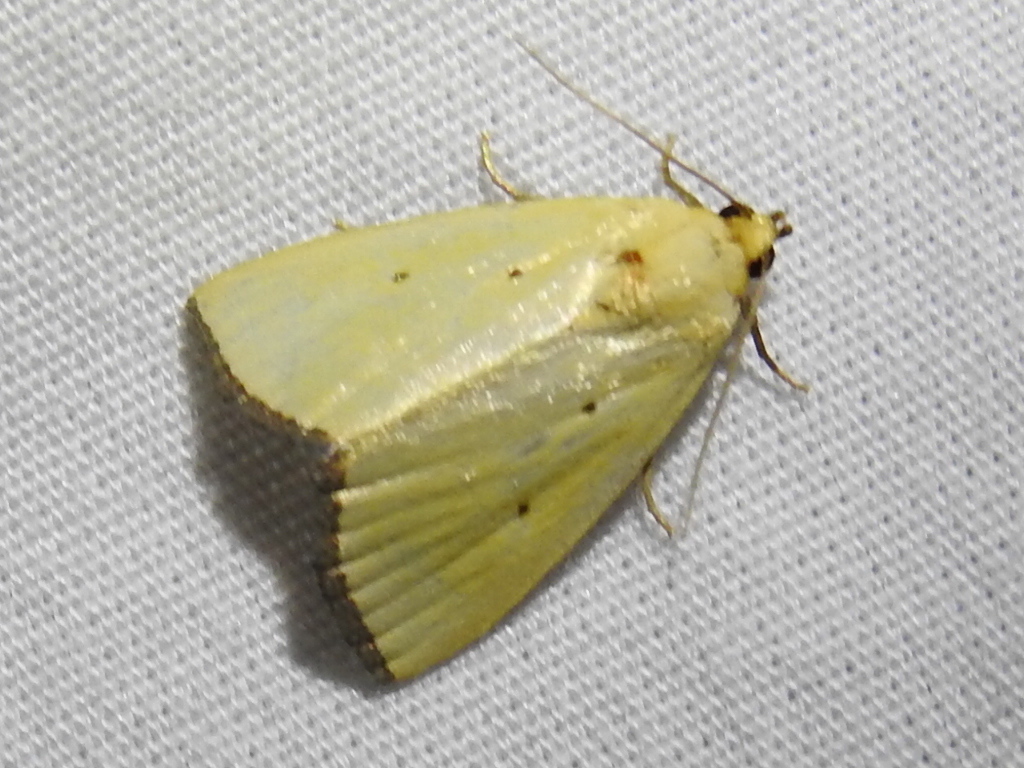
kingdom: Animalia
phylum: Arthropoda
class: Insecta
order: Lepidoptera
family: Noctuidae
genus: Marimatha
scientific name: Marimatha nigrofimbria
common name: Black-bordered lemon moth
